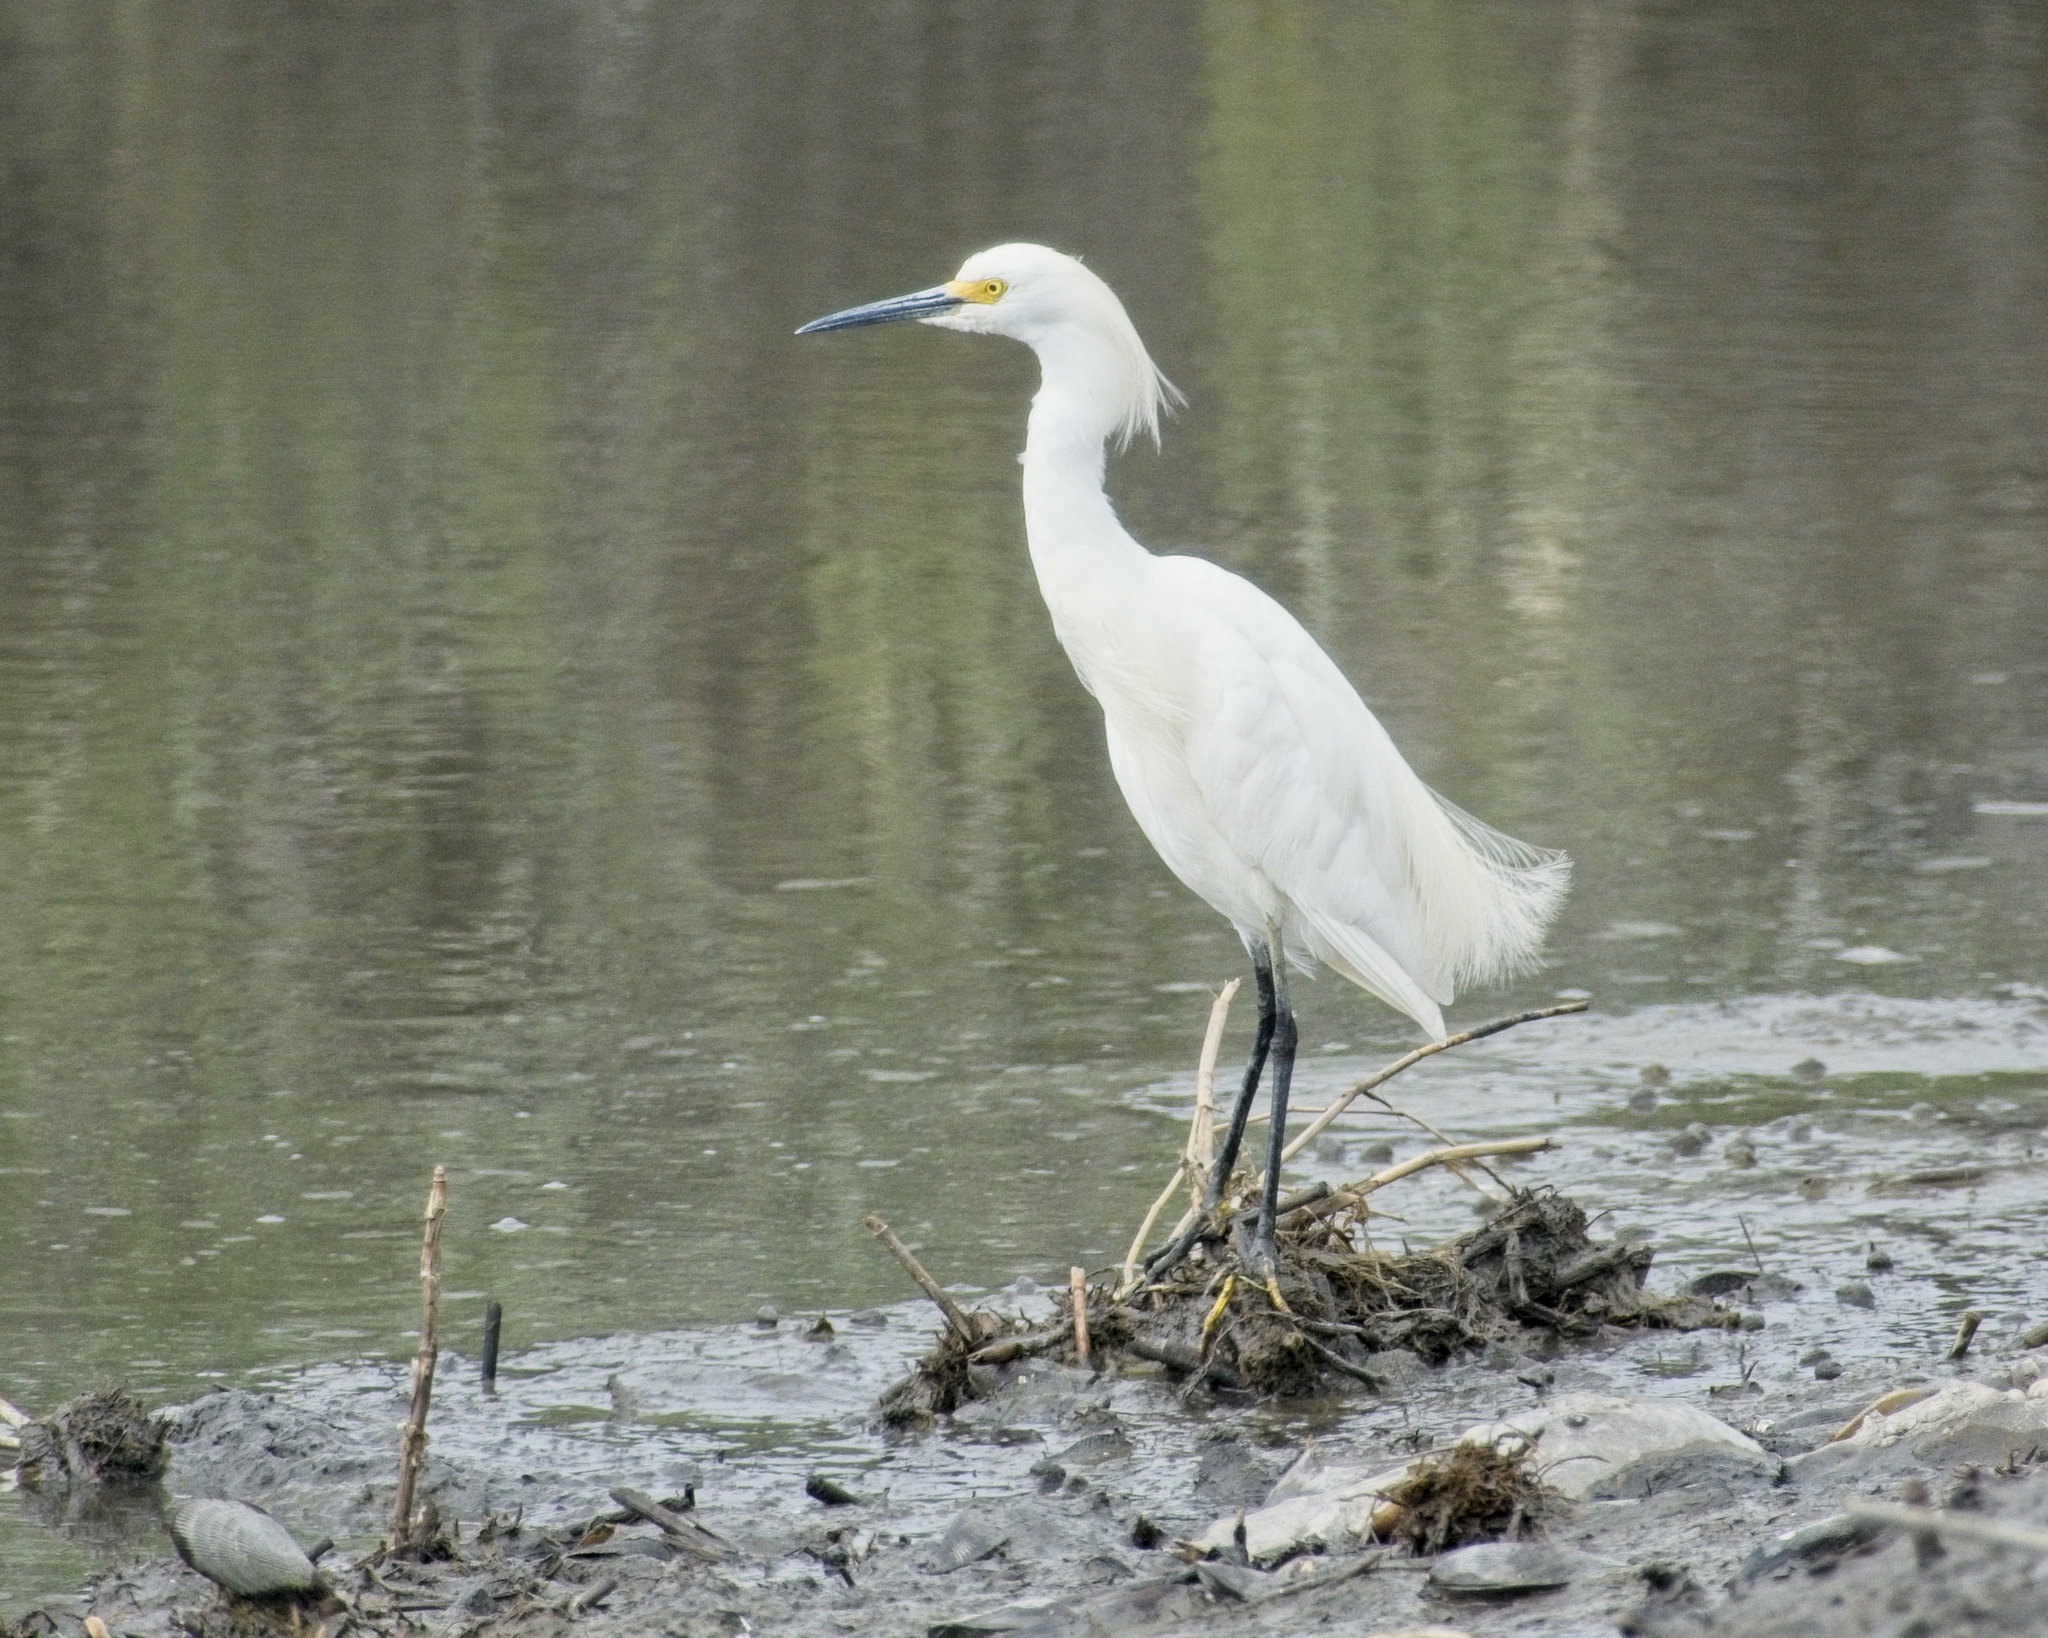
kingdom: Animalia
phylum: Chordata
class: Aves
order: Pelecaniformes
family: Ardeidae
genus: Egretta
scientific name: Egretta thula
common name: Snowy egret
